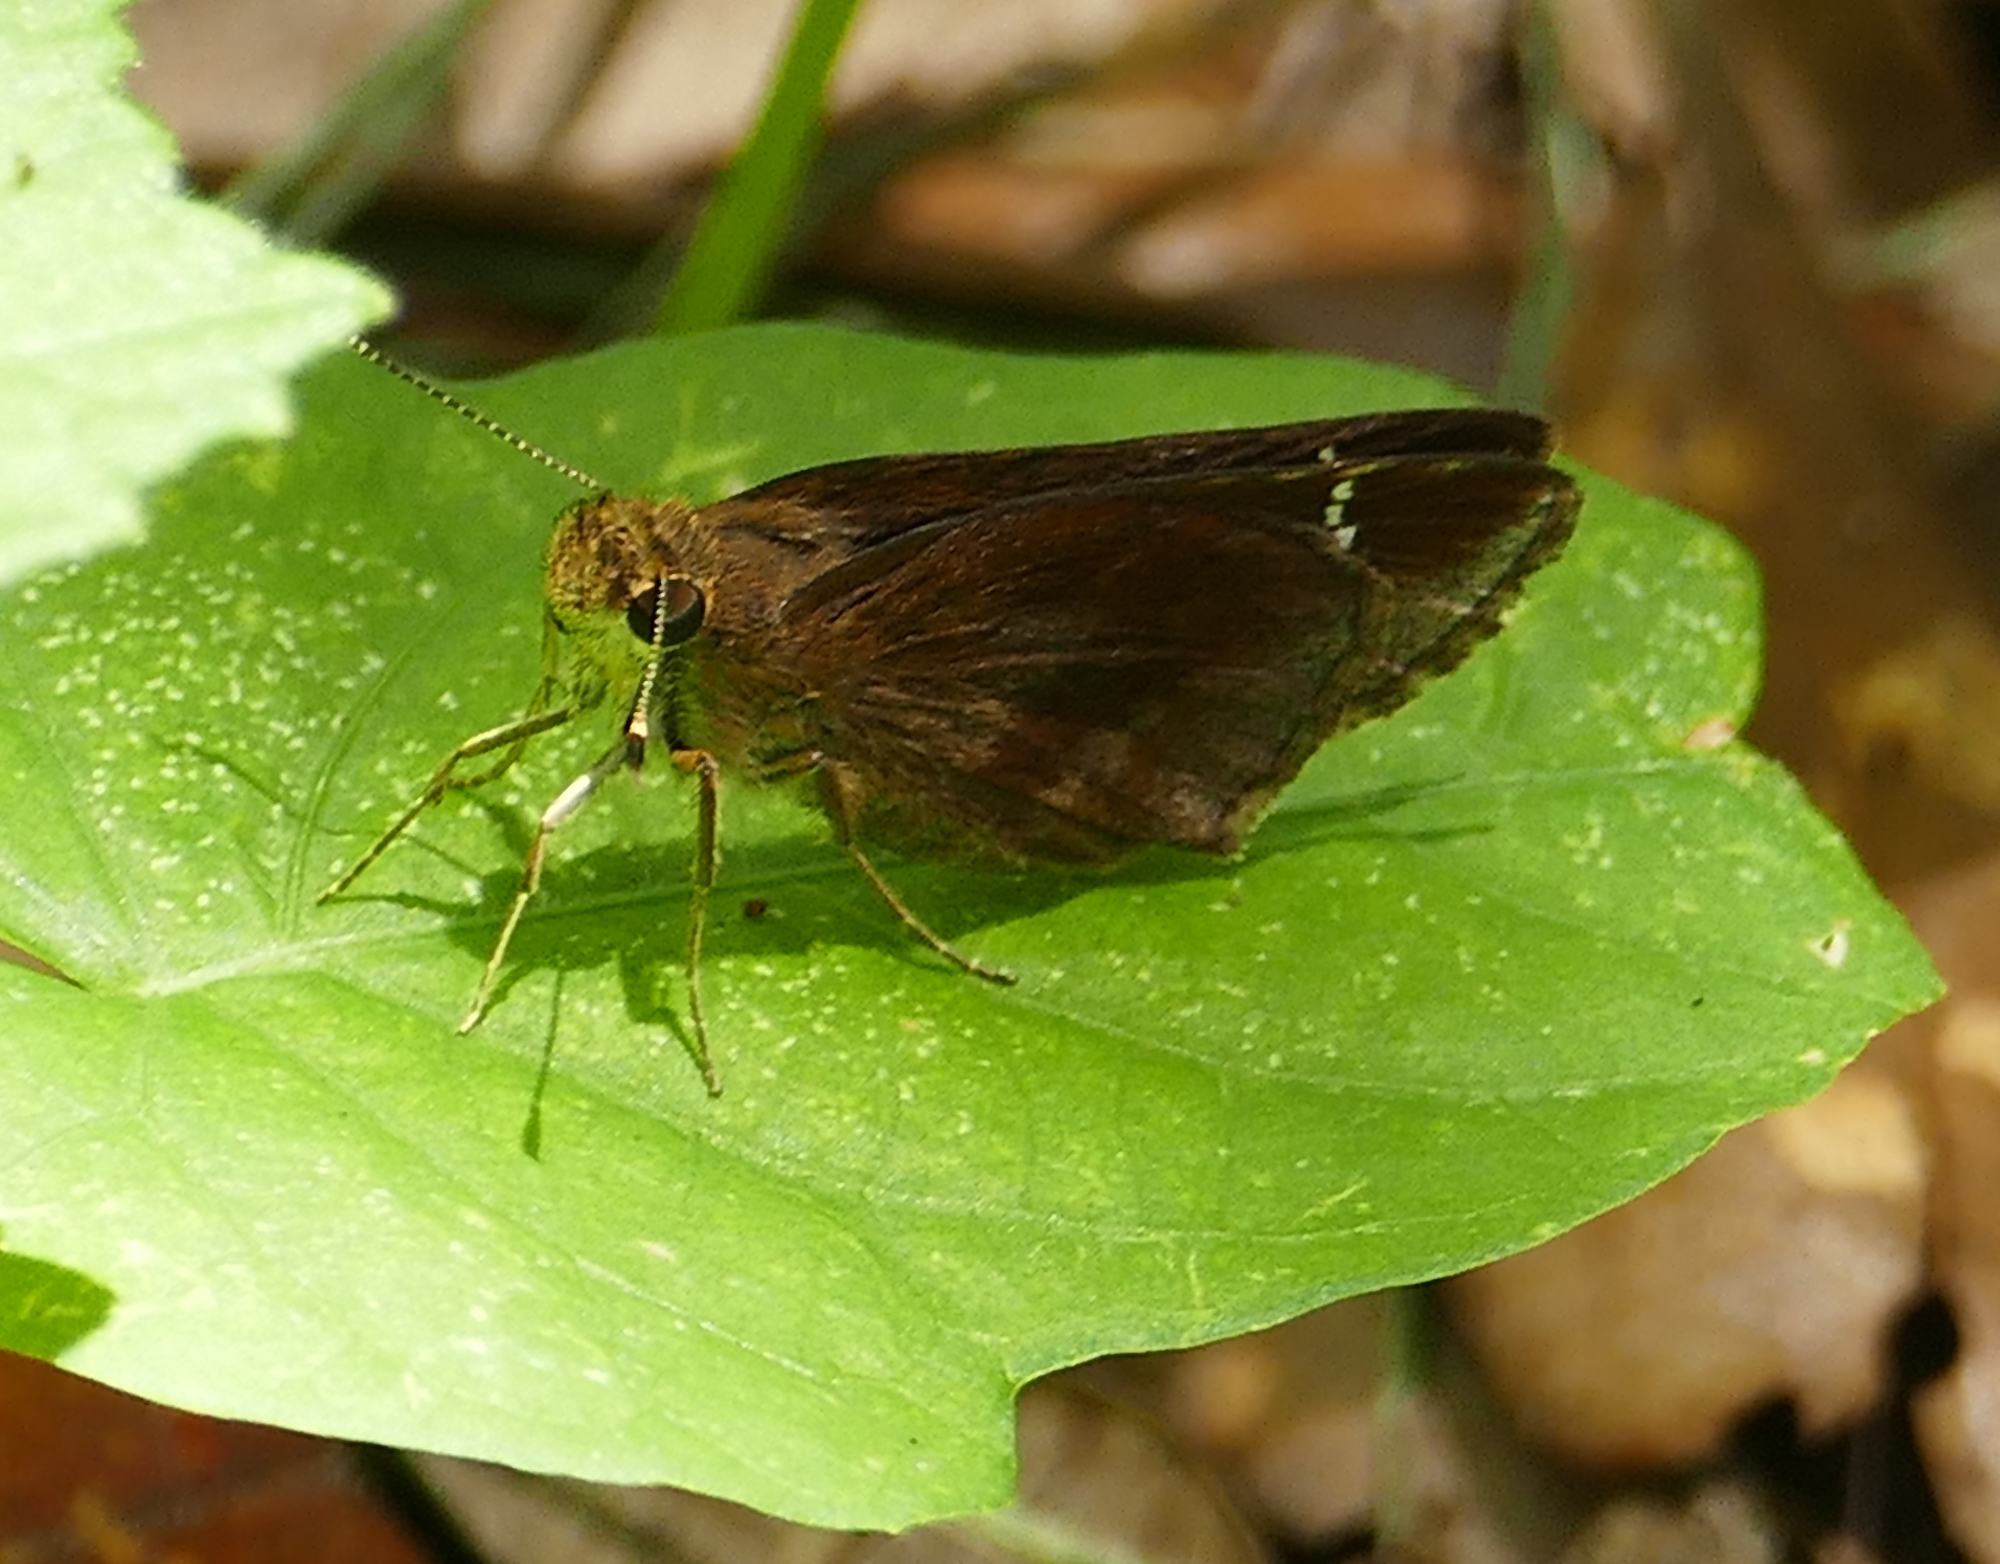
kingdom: Animalia
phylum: Arthropoda
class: Insecta
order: Lepidoptera
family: Hesperiidae
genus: Lerema
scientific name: Lerema accius
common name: Clouded skipper
